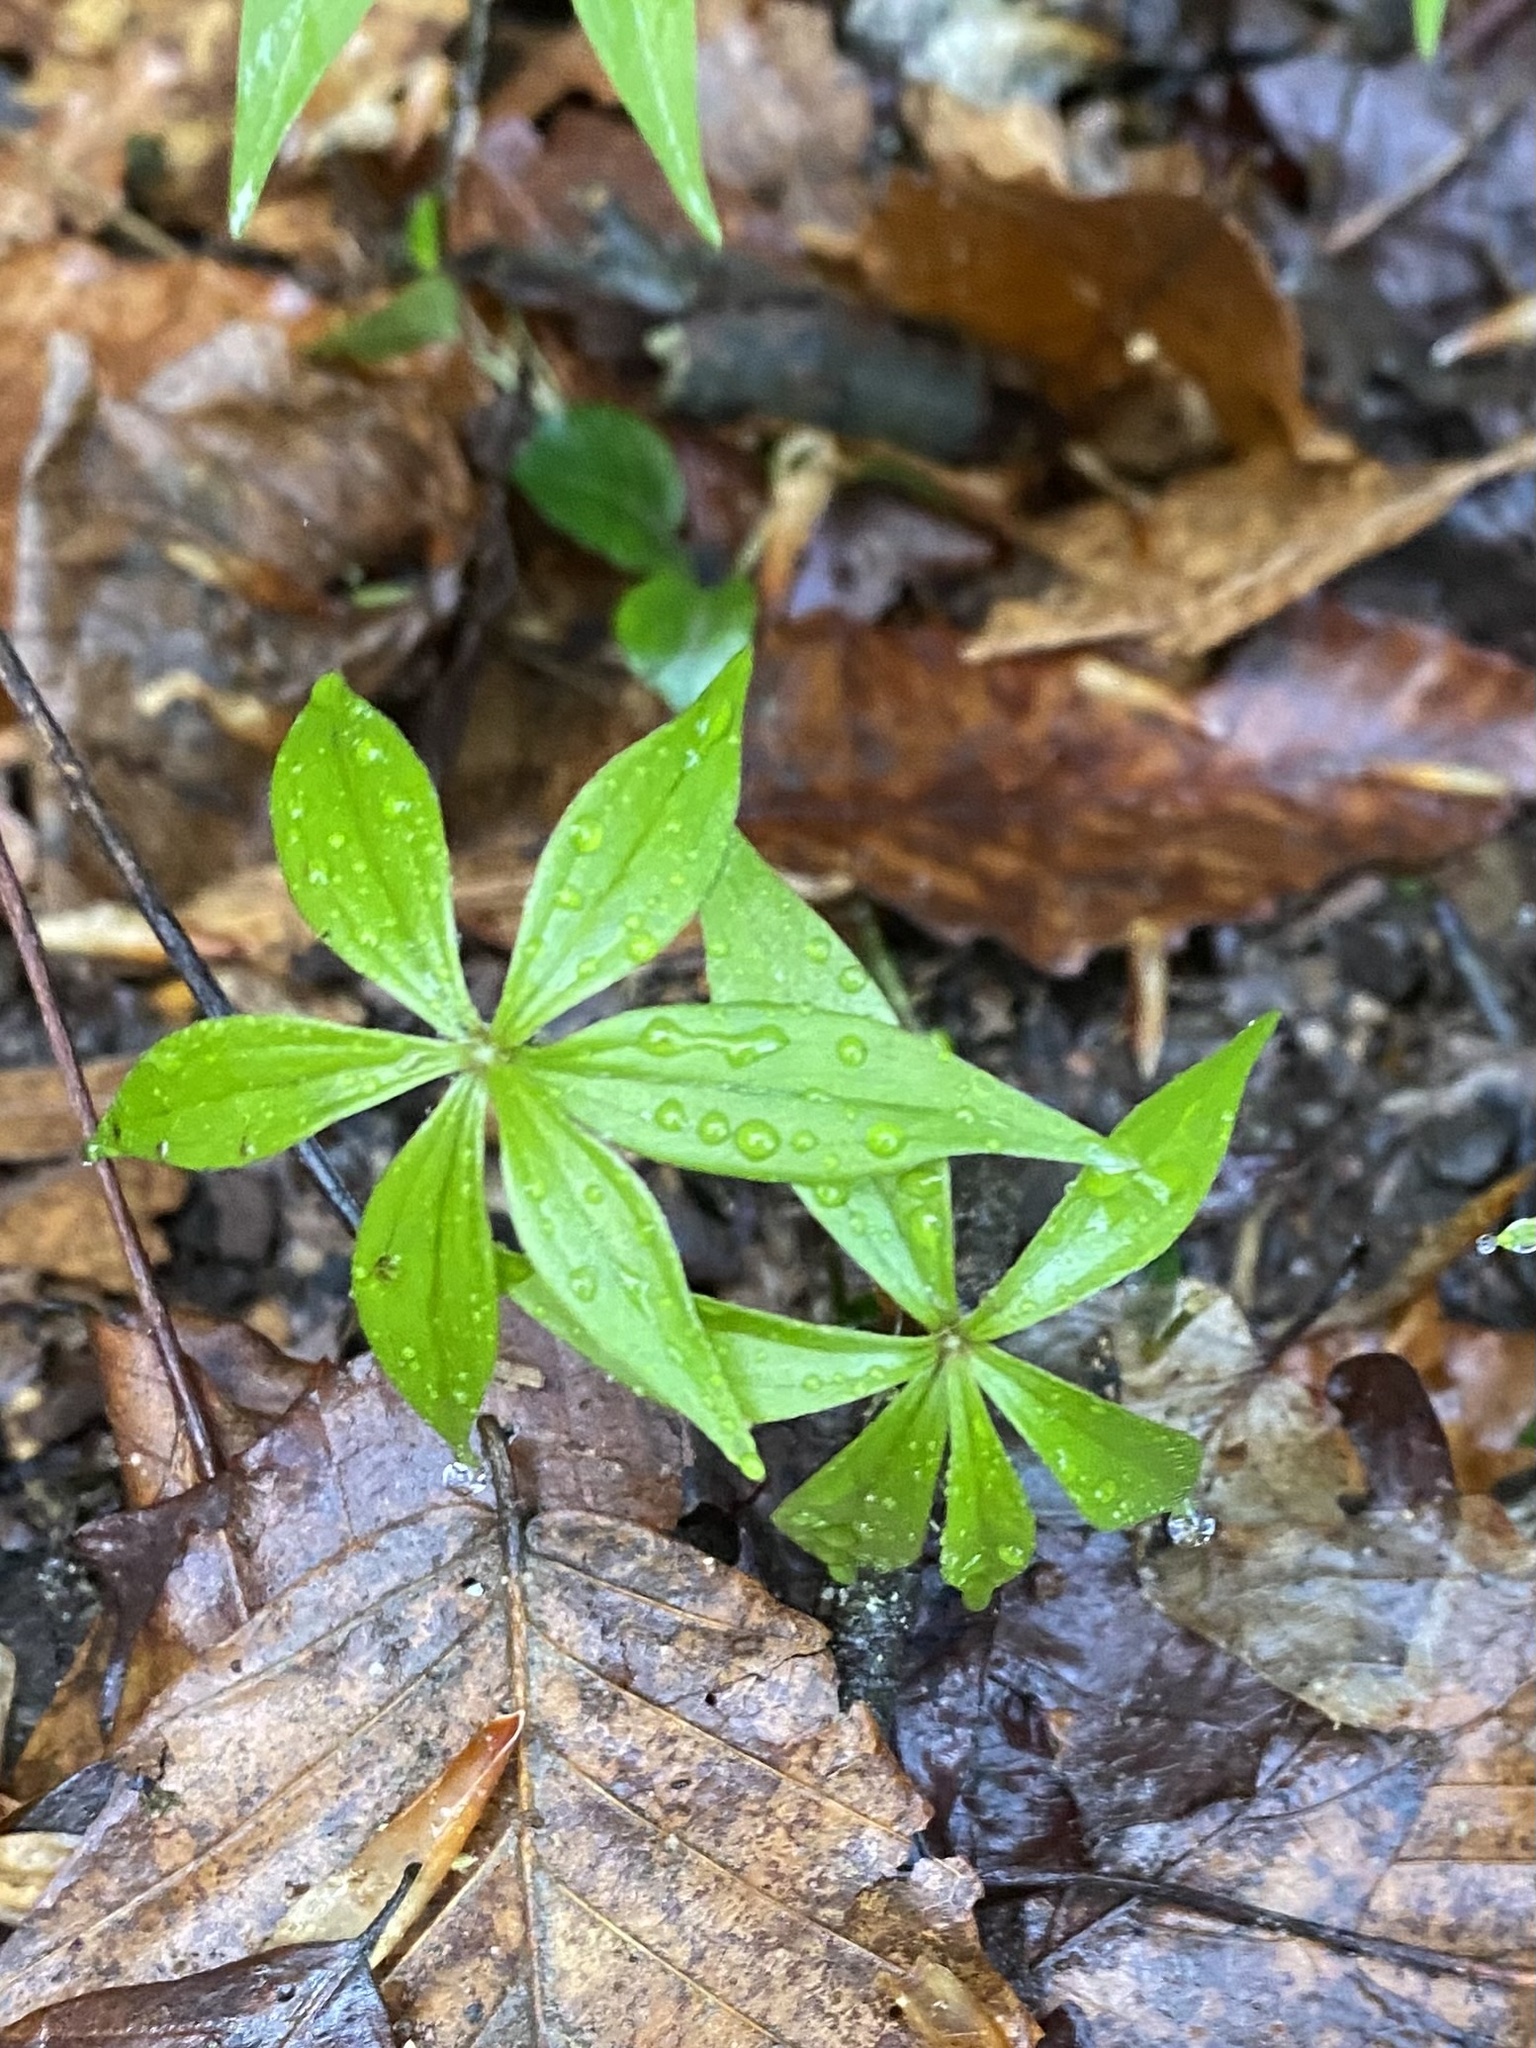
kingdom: Plantae
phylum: Tracheophyta
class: Liliopsida
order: Liliales
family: Liliaceae
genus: Medeola
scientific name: Medeola virginiana
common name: Indian cucumber-root
